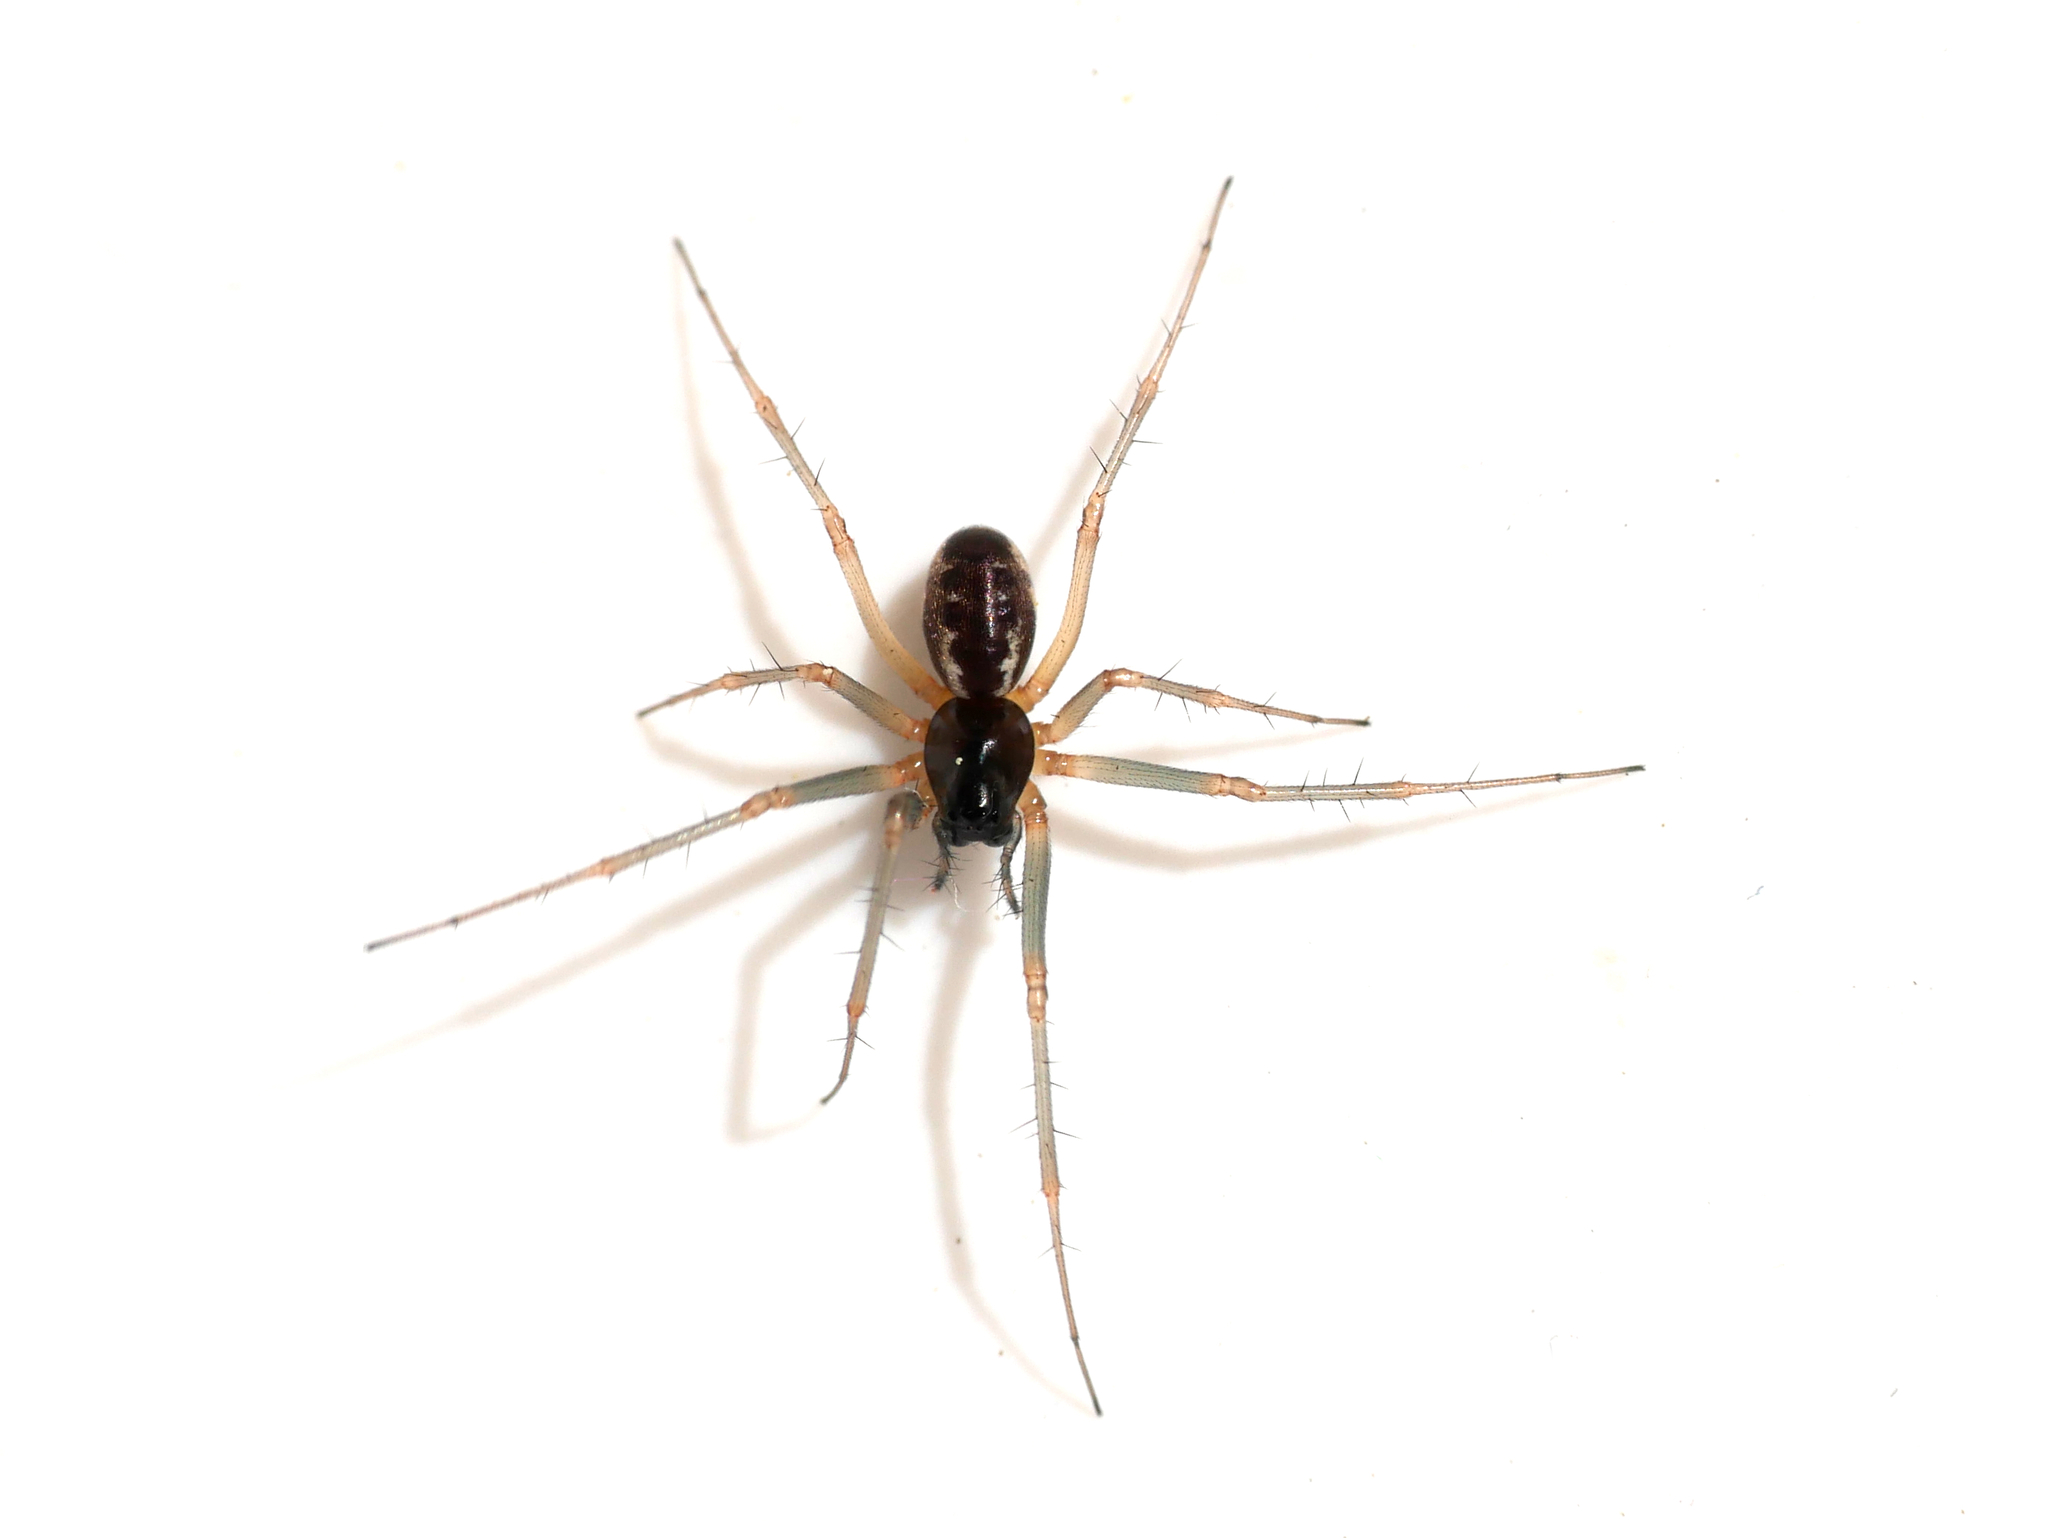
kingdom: Animalia
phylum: Arthropoda
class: Arachnida
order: Araneae
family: Linyphiidae
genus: Linyphia
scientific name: Linyphia hortensis
